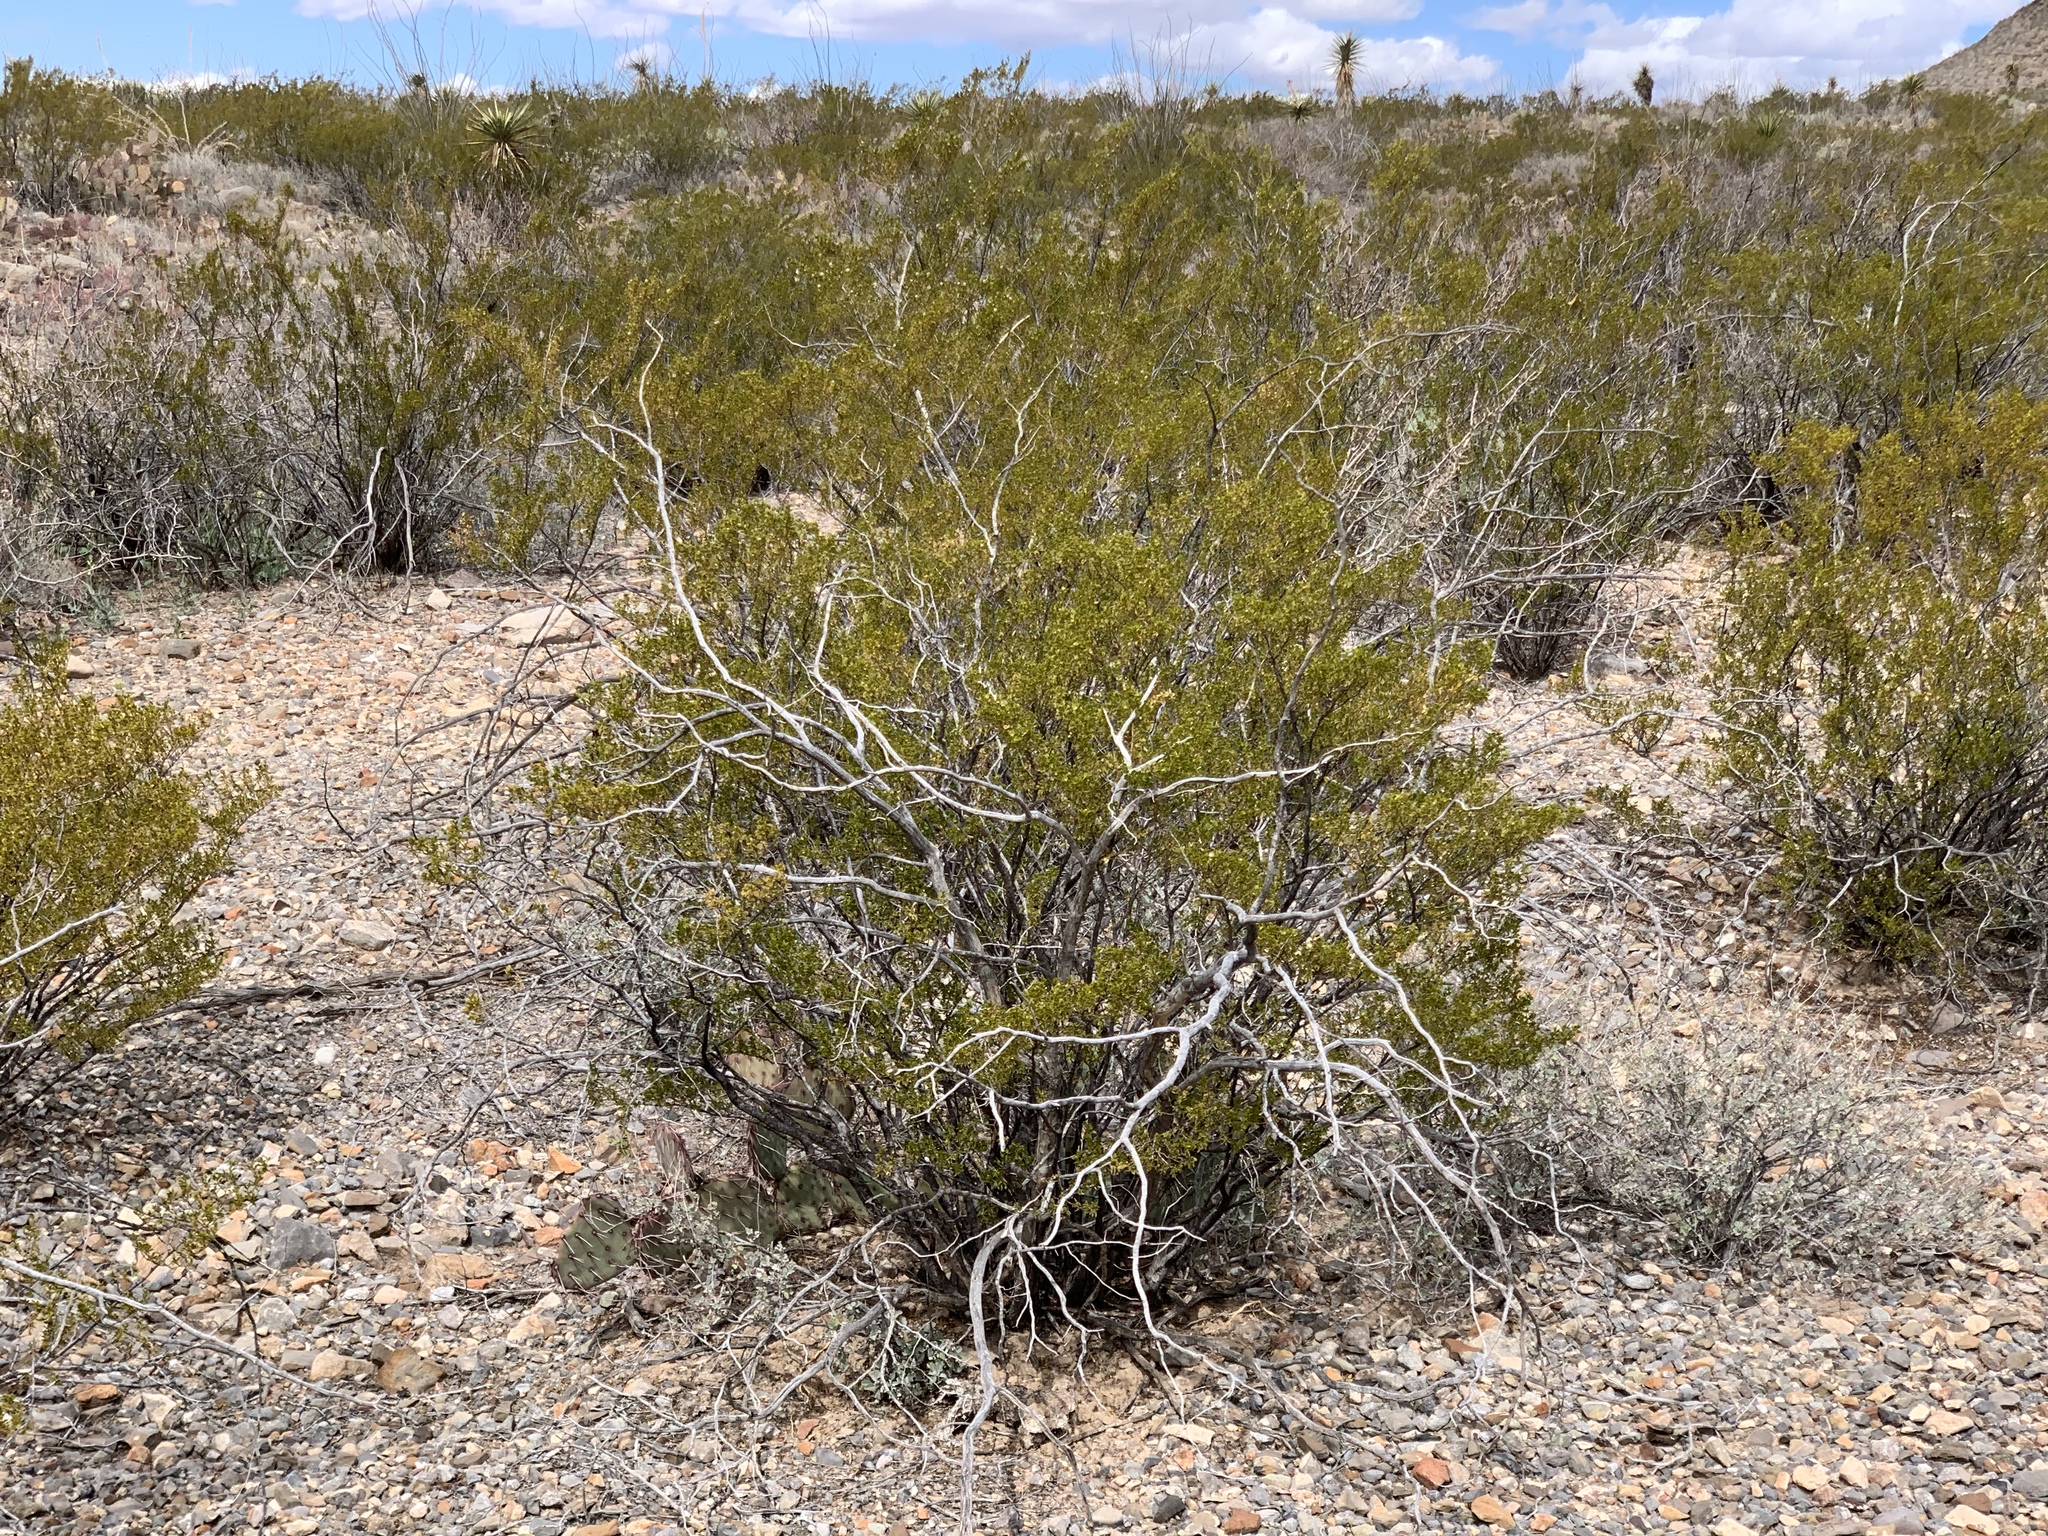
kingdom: Plantae
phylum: Tracheophyta
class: Magnoliopsida
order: Zygophyllales
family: Zygophyllaceae
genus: Larrea
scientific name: Larrea tridentata
